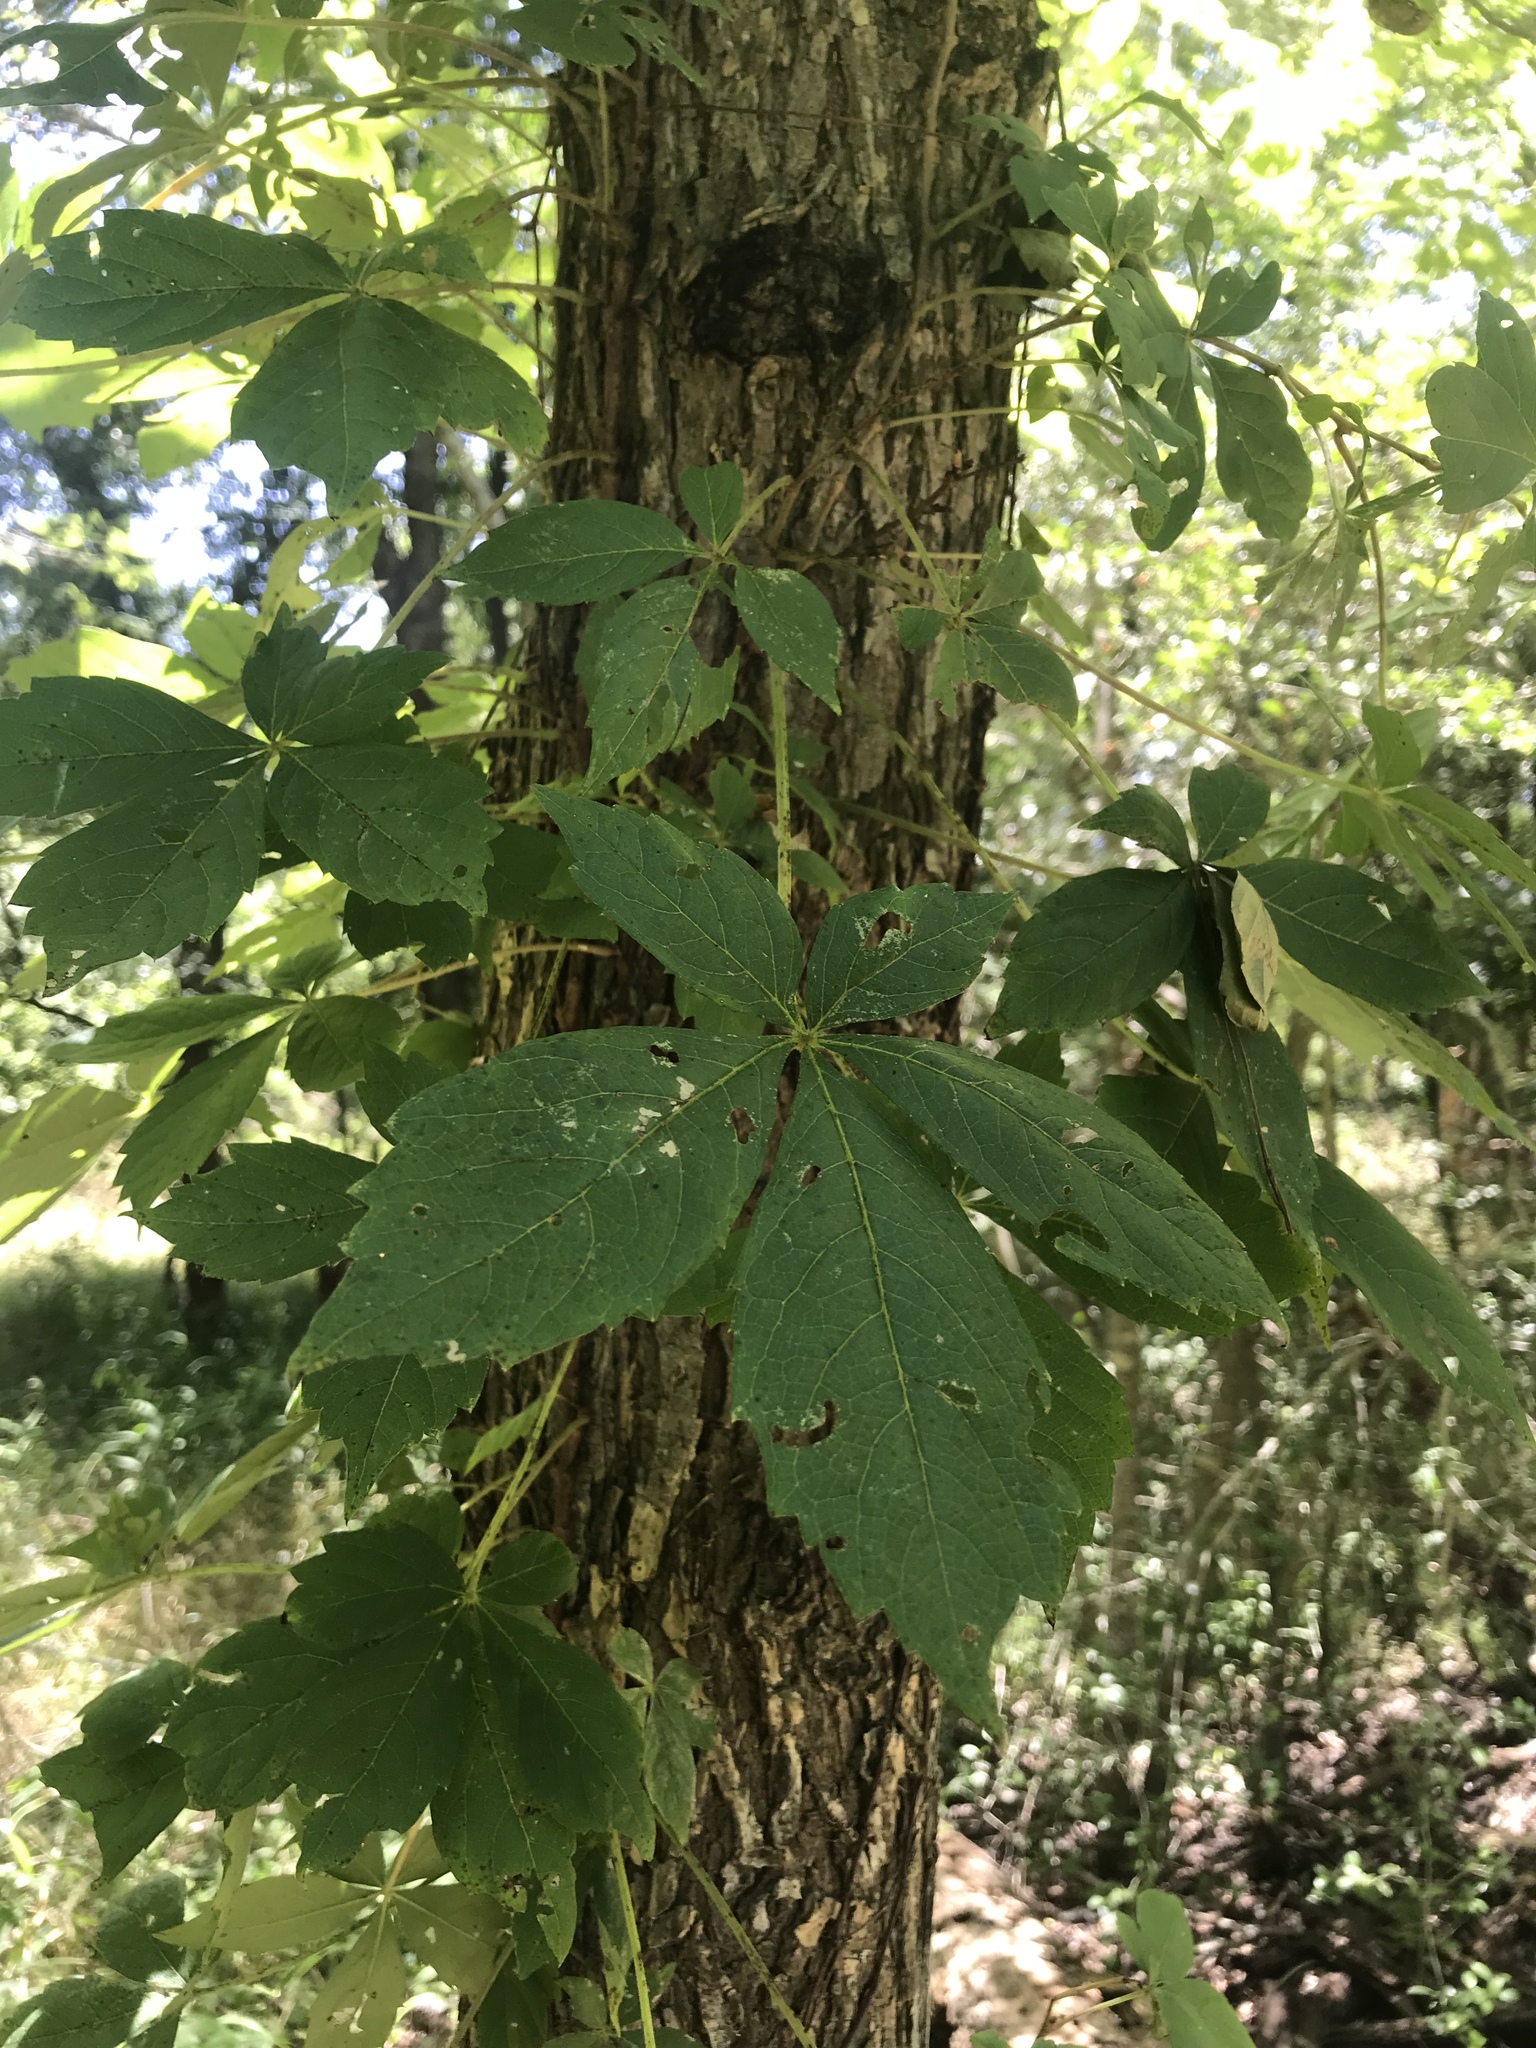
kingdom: Plantae
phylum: Tracheophyta
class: Magnoliopsida
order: Vitales
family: Vitaceae
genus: Parthenocissus
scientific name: Parthenocissus quinquefolia
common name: Virginia-creeper
